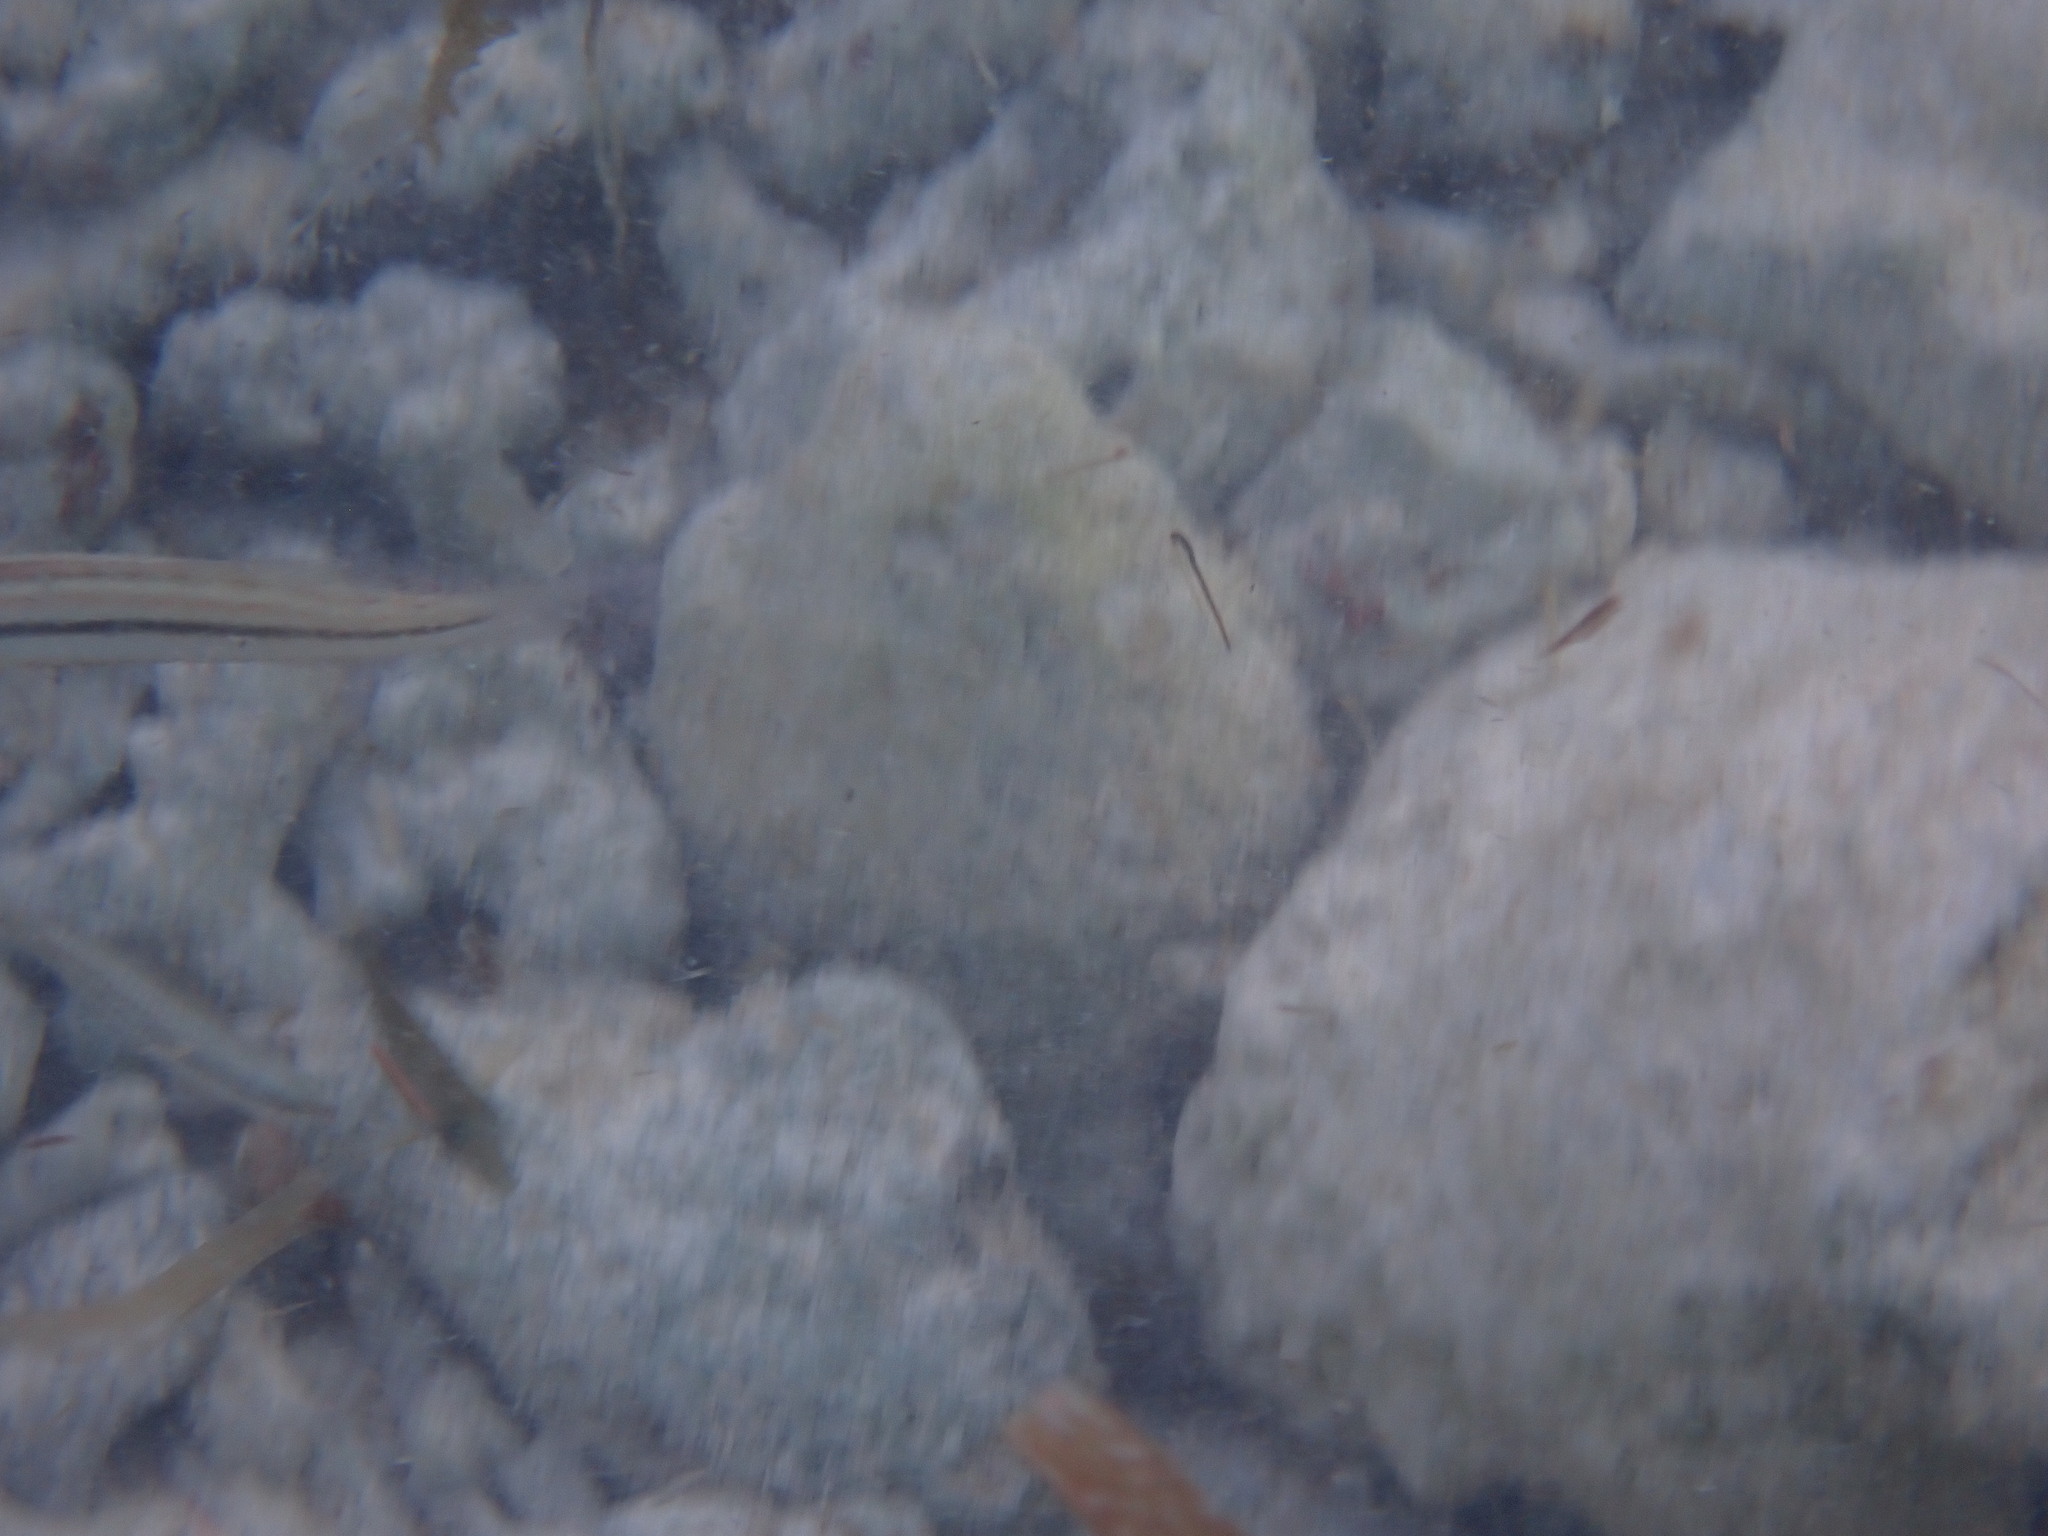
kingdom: Animalia
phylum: Chordata
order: Perciformes
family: Labridae
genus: Halichoeres
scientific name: Halichoeres bivittatus
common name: Slippery dick
